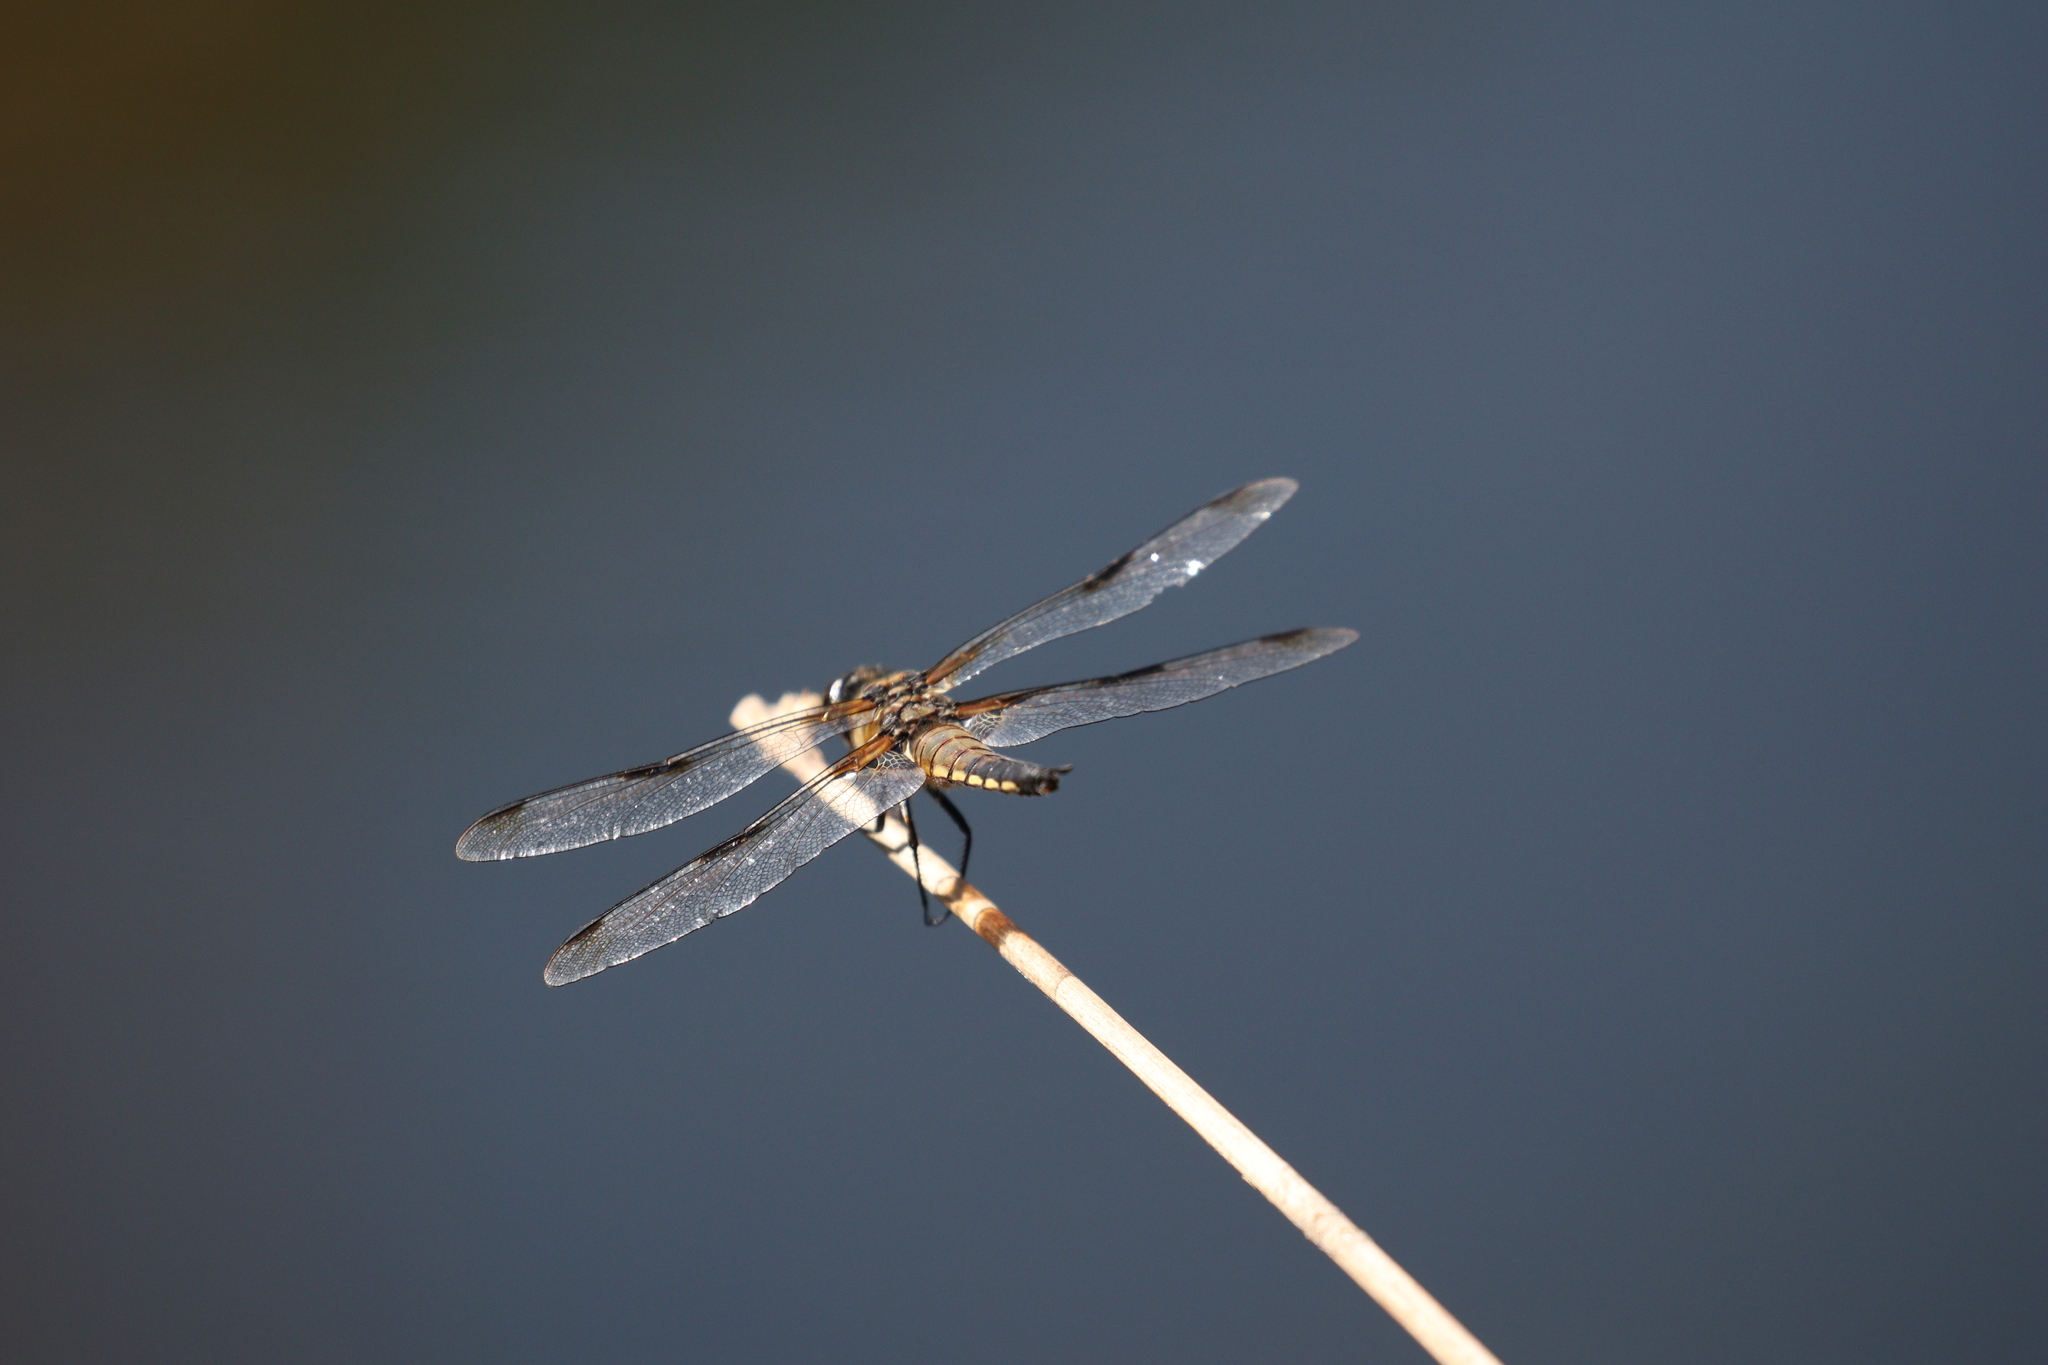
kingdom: Animalia
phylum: Arthropoda
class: Insecta
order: Odonata
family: Libellulidae
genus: Libellula
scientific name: Libellula quadrimaculata
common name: Four-spotted chaser
